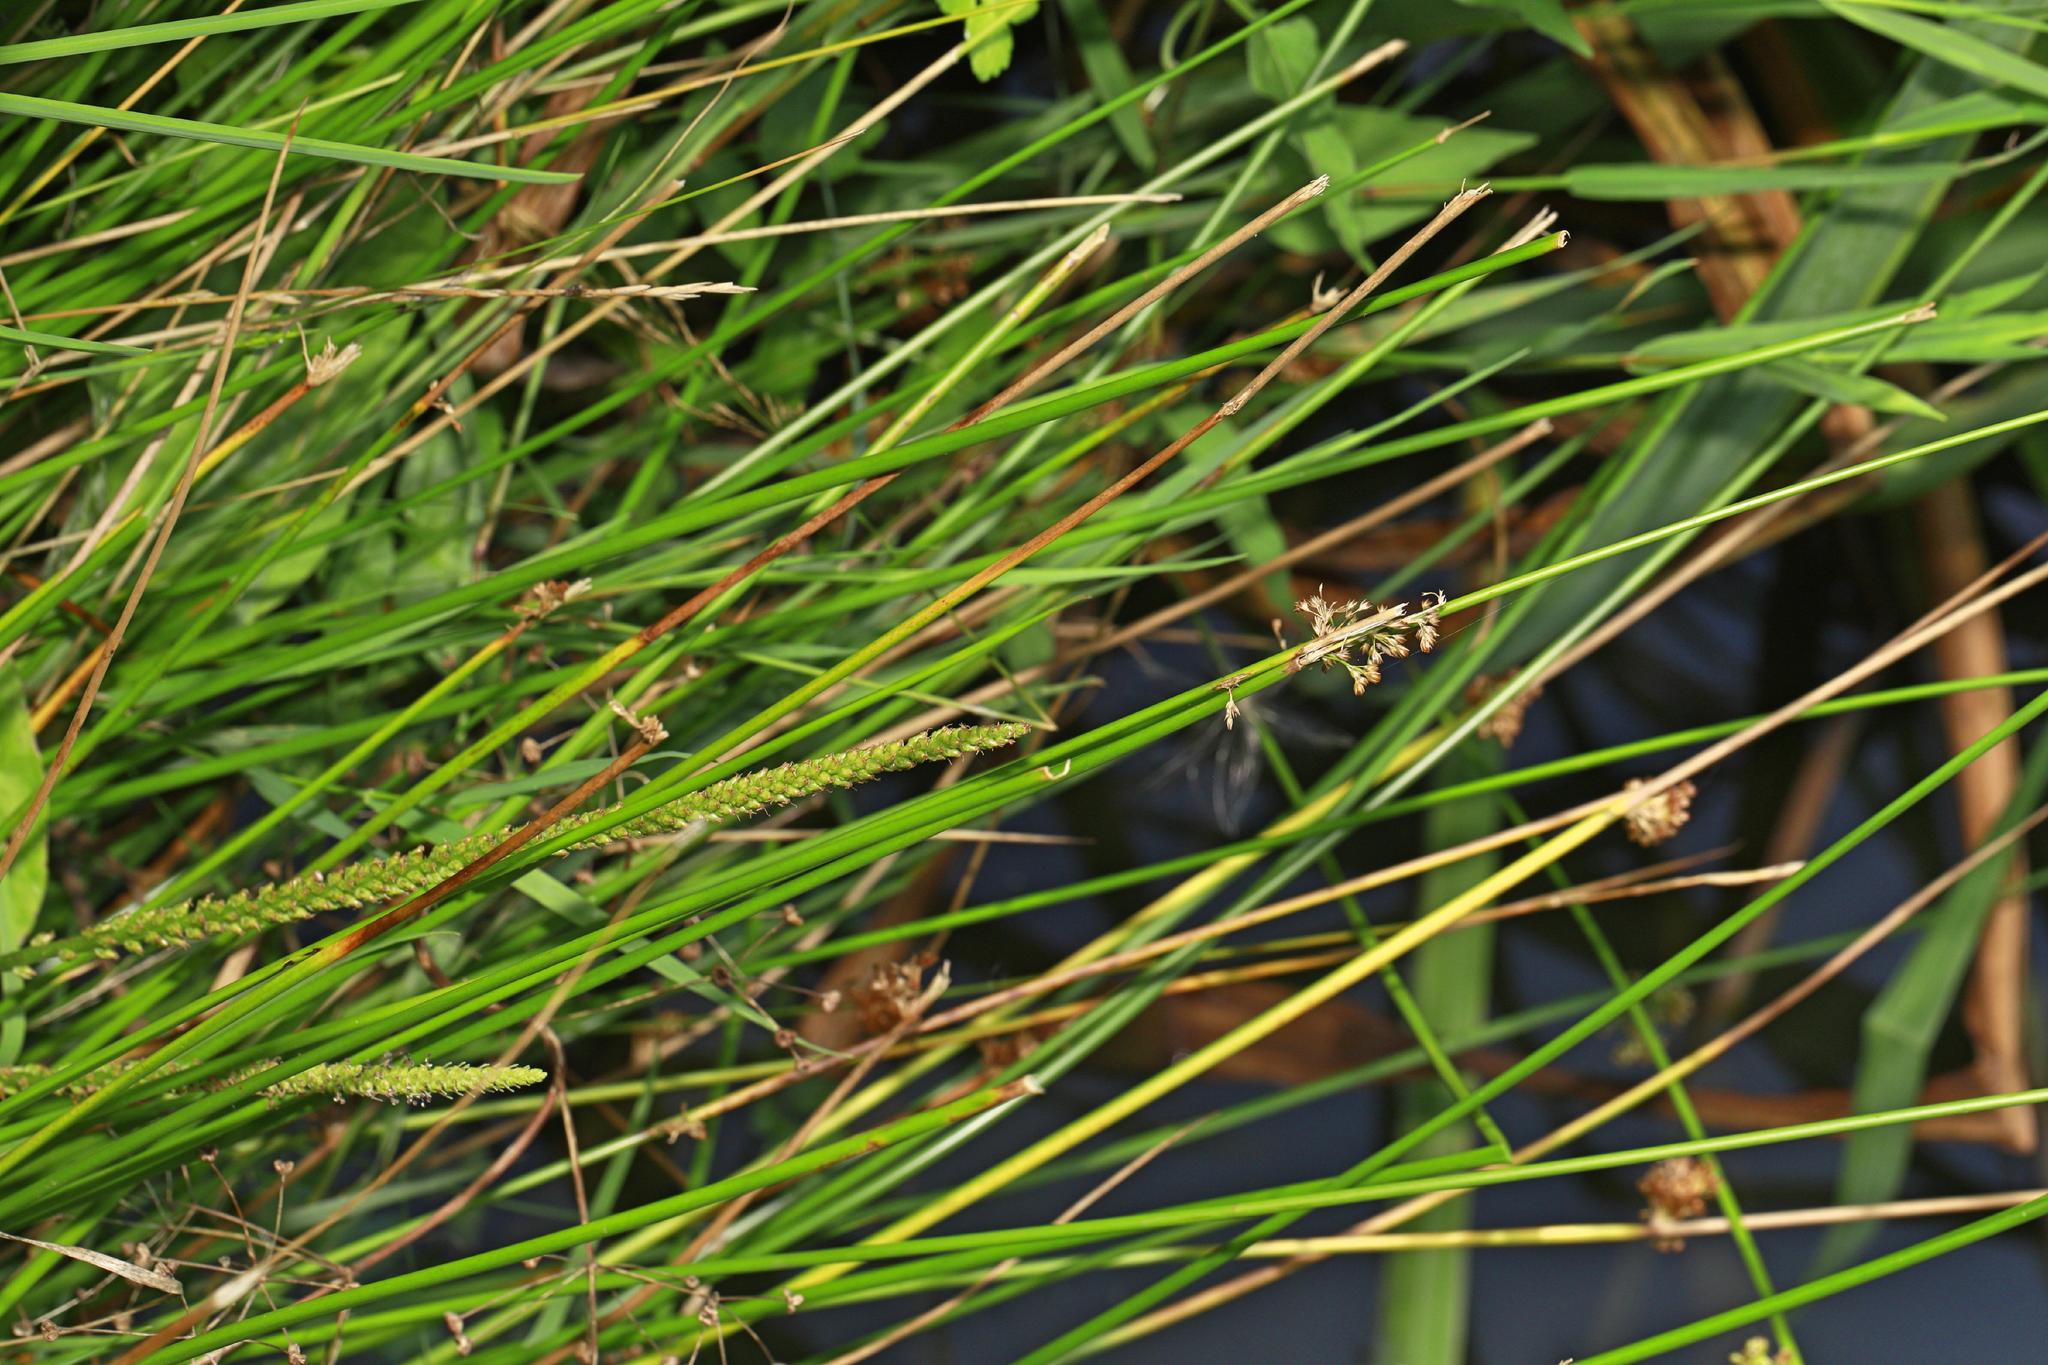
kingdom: Plantae
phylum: Tracheophyta
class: Liliopsida
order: Poales
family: Juncaceae
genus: Juncus
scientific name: Juncus effusus
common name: Soft rush
